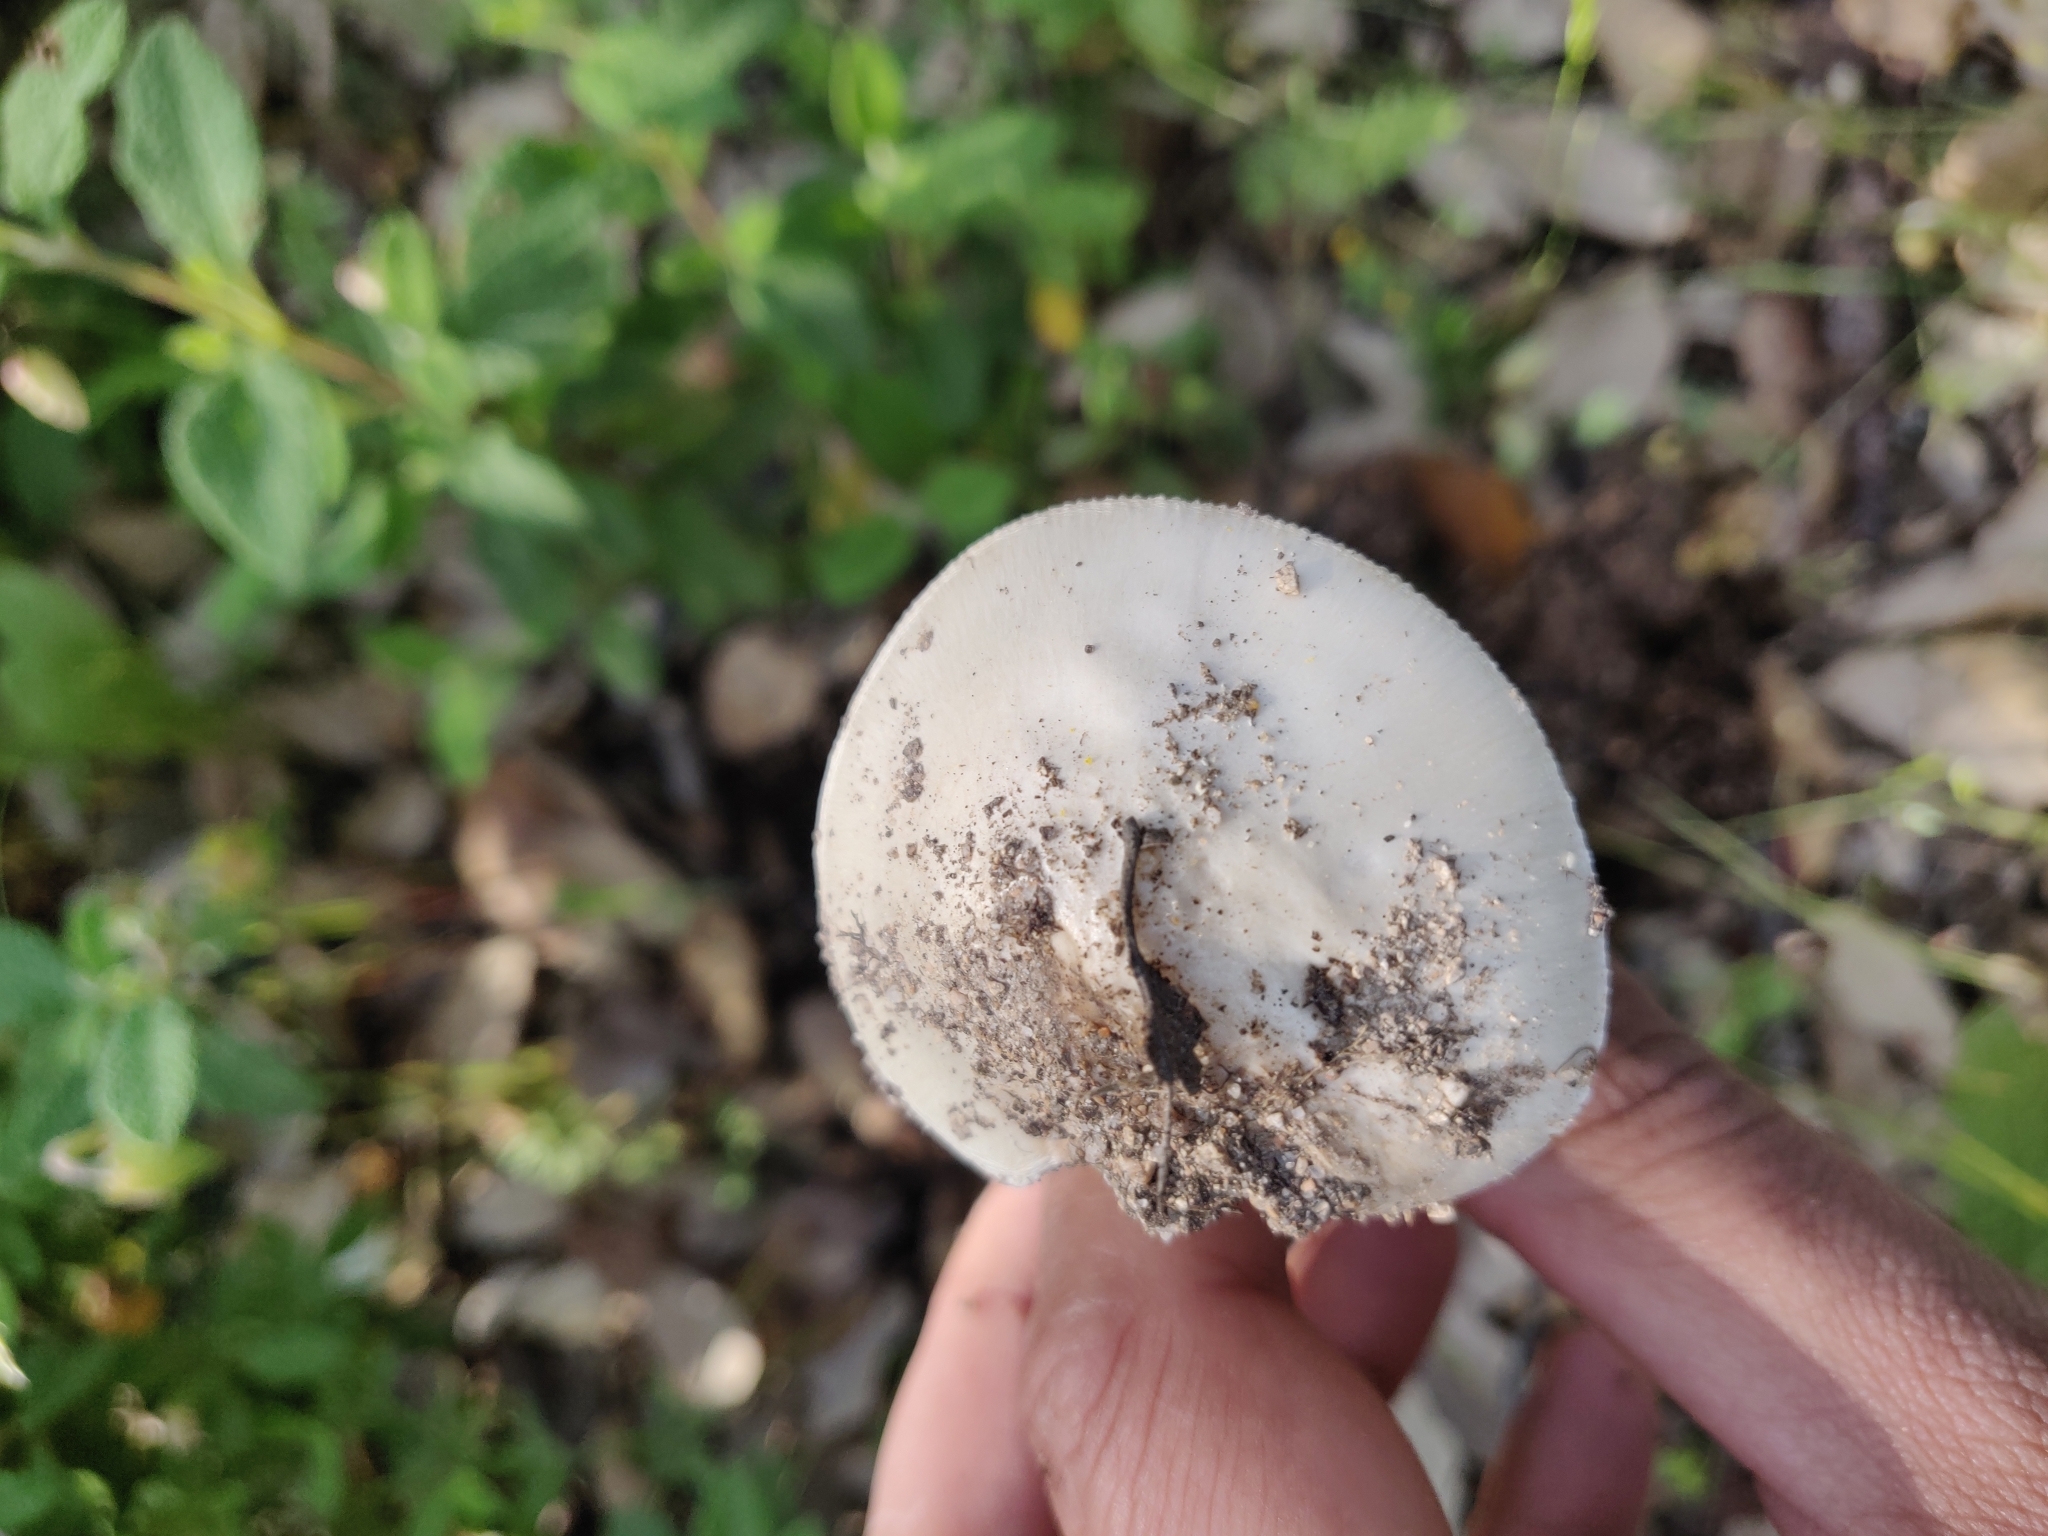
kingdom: Fungi
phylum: Basidiomycota
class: Agaricomycetes
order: Agaricales
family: Amanitaceae
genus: Amanita
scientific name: Amanita verna
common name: Fool's mushroom
